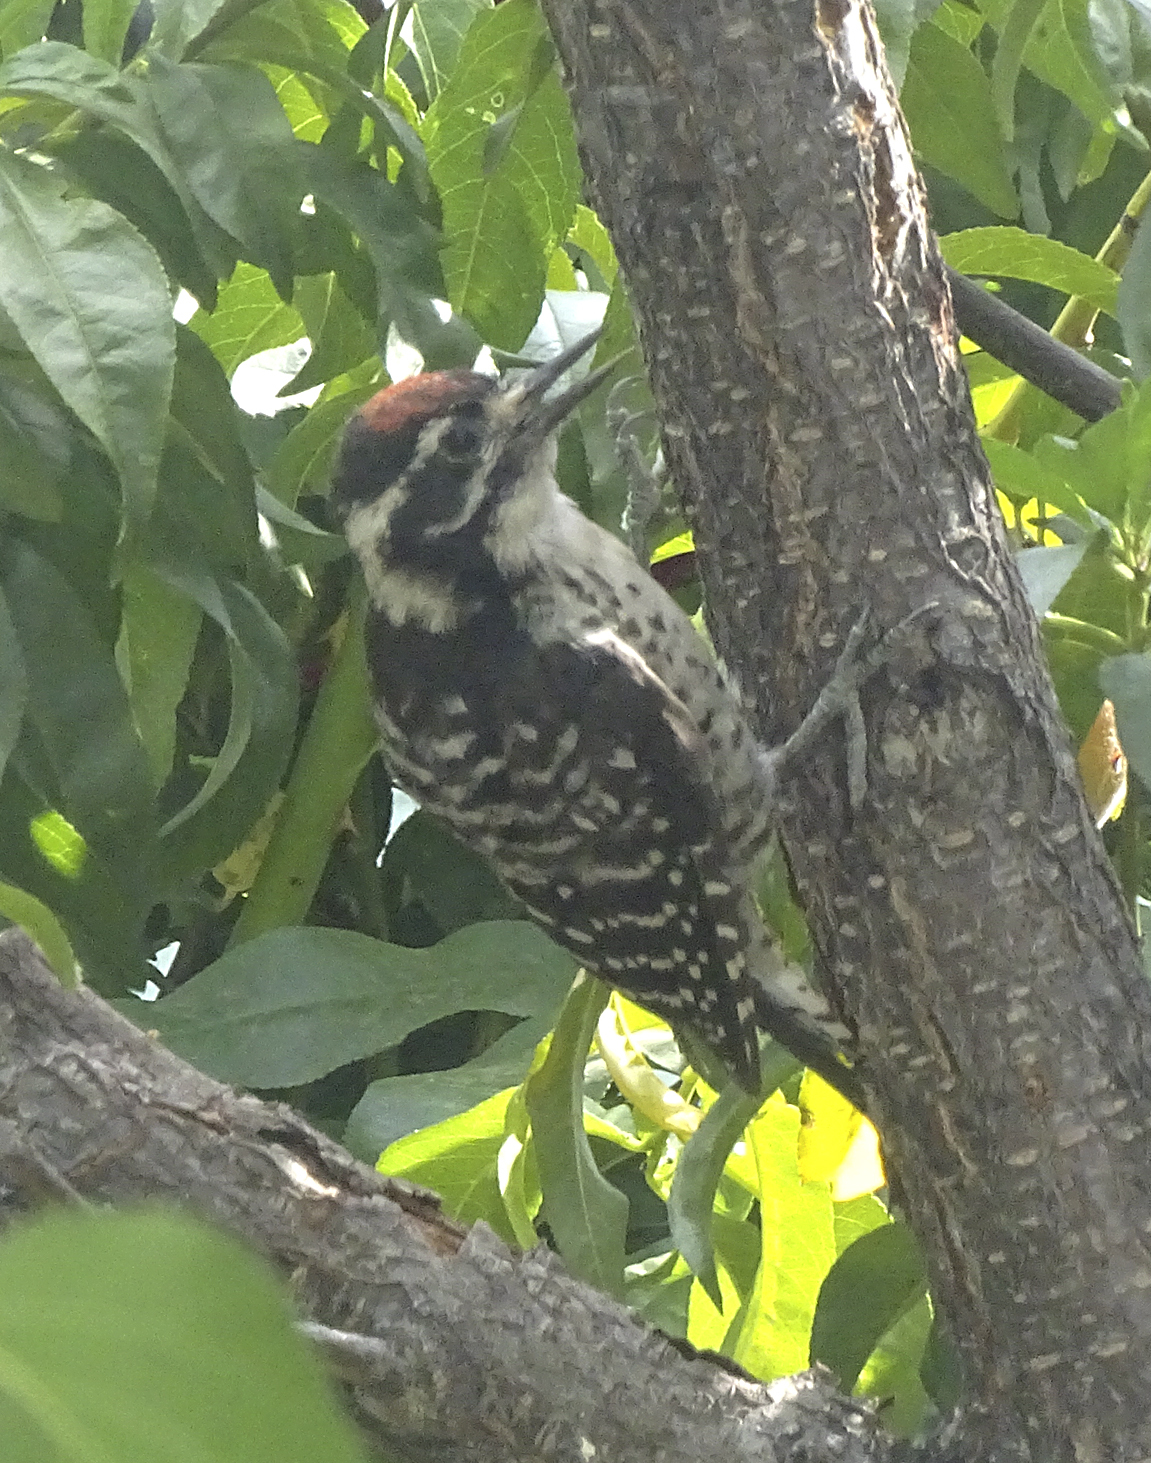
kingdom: Animalia
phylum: Chordata
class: Aves
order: Piciformes
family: Picidae
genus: Dryobates
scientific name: Dryobates nuttallii
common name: Nuttall's woodpecker
